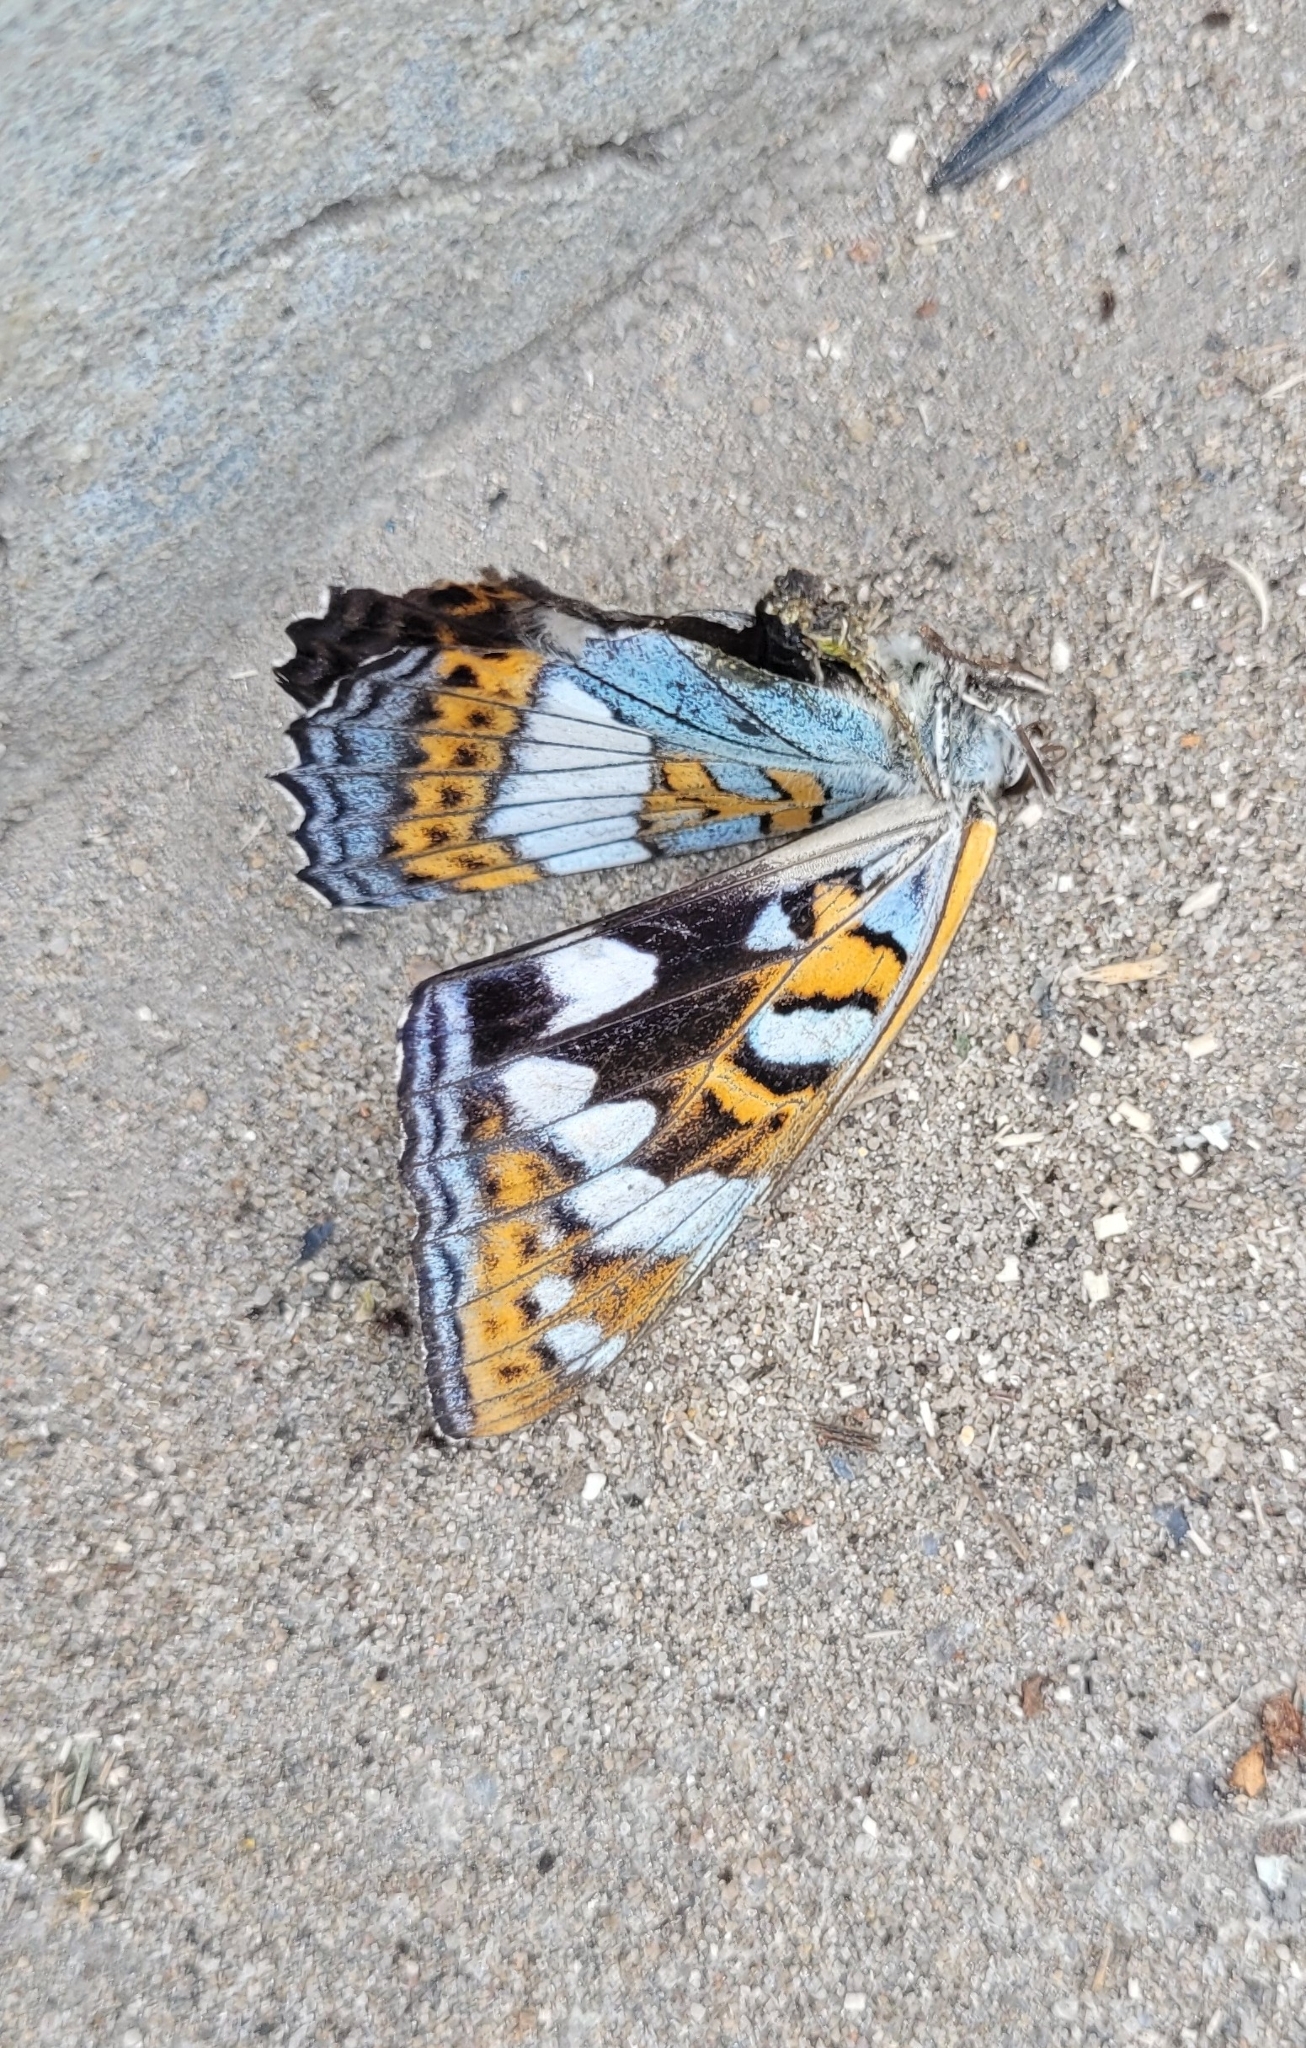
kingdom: Animalia
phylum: Arthropoda
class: Insecta
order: Lepidoptera
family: Nymphalidae
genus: Limenitis
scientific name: Limenitis populi
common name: Poplar admiral
